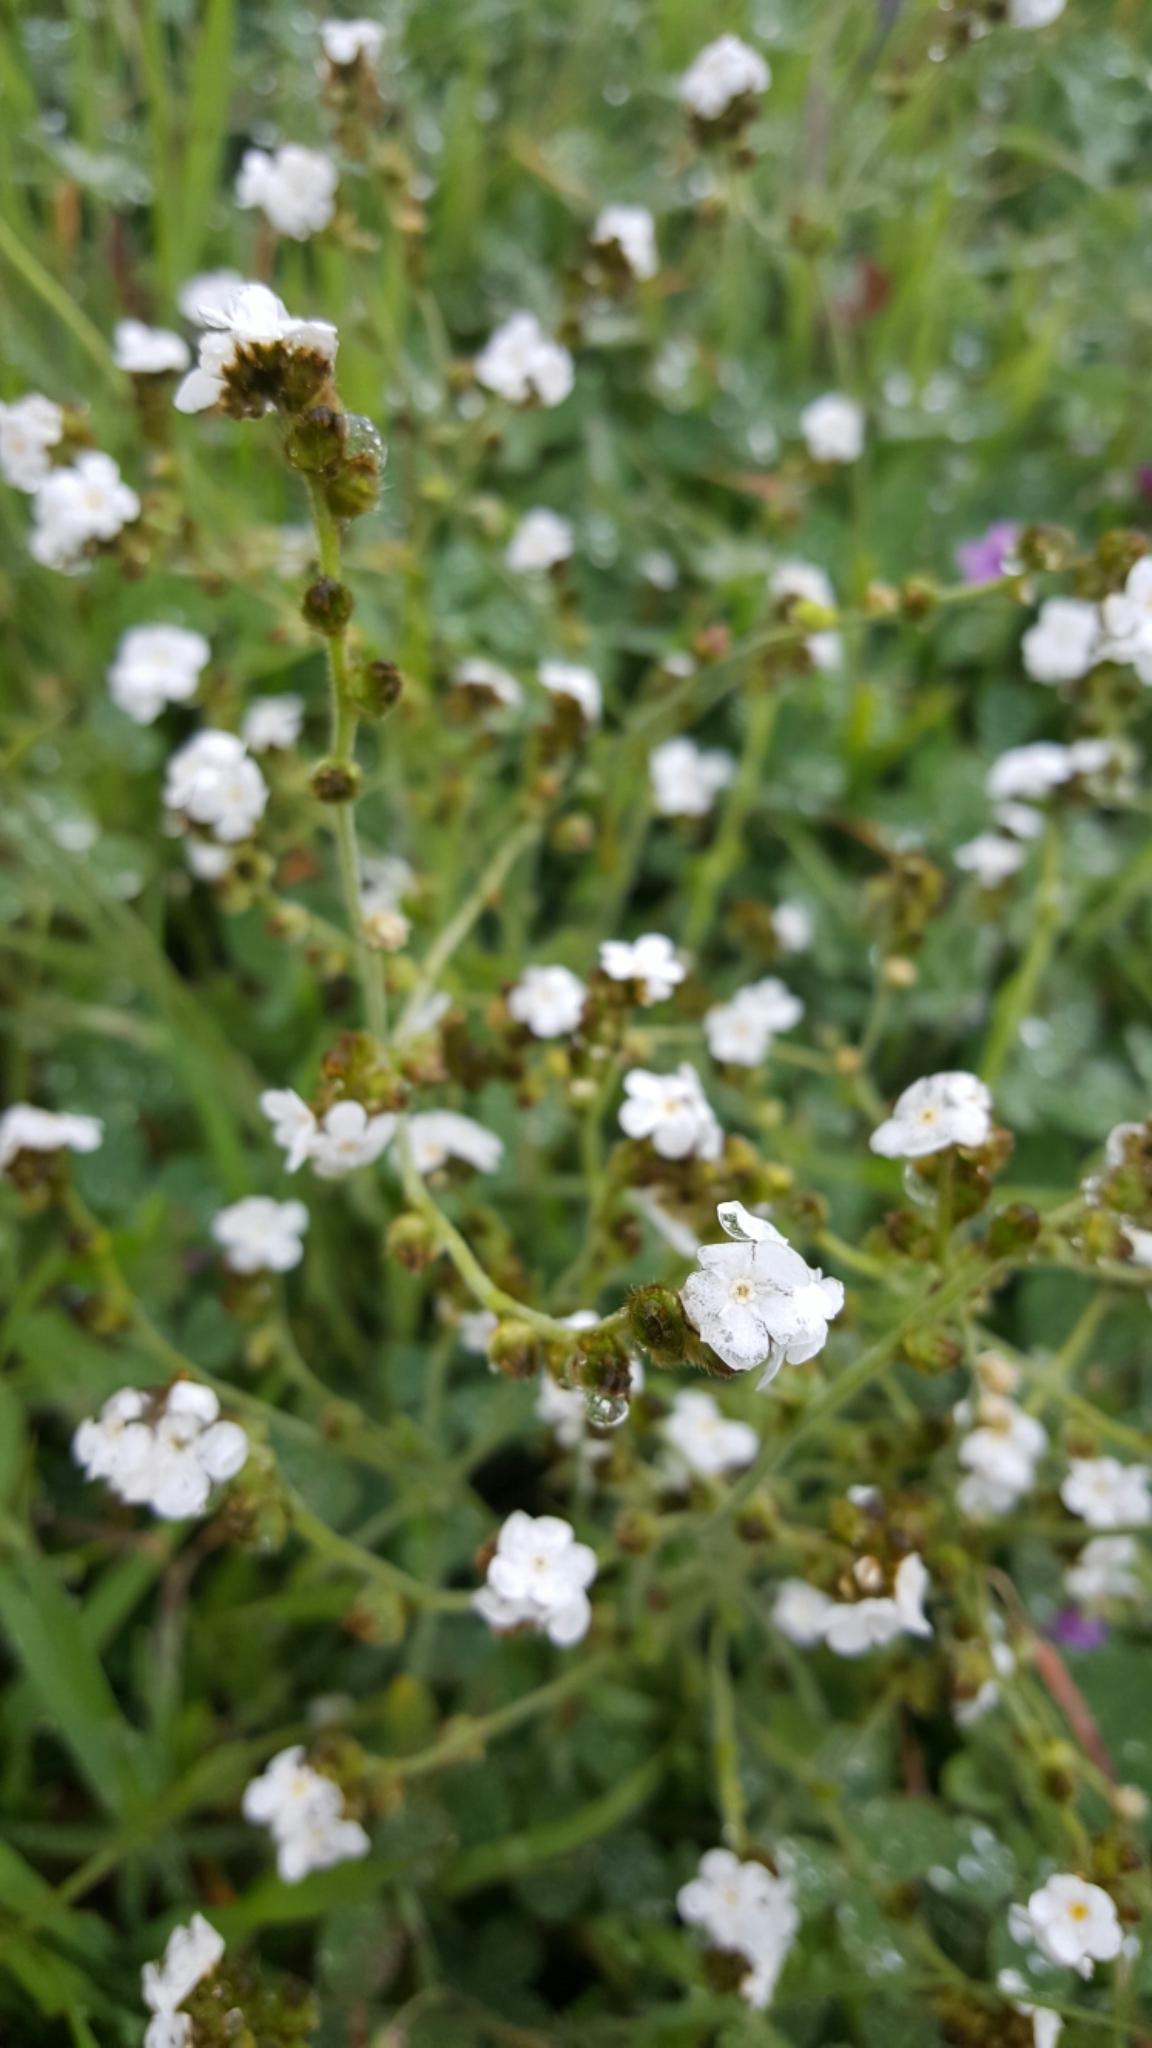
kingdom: Plantae
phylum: Tracheophyta
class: Magnoliopsida
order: Boraginales
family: Boraginaceae
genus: Plagiobothrys
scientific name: Plagiobothrys nothofulvus
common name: Popcorn-flower
